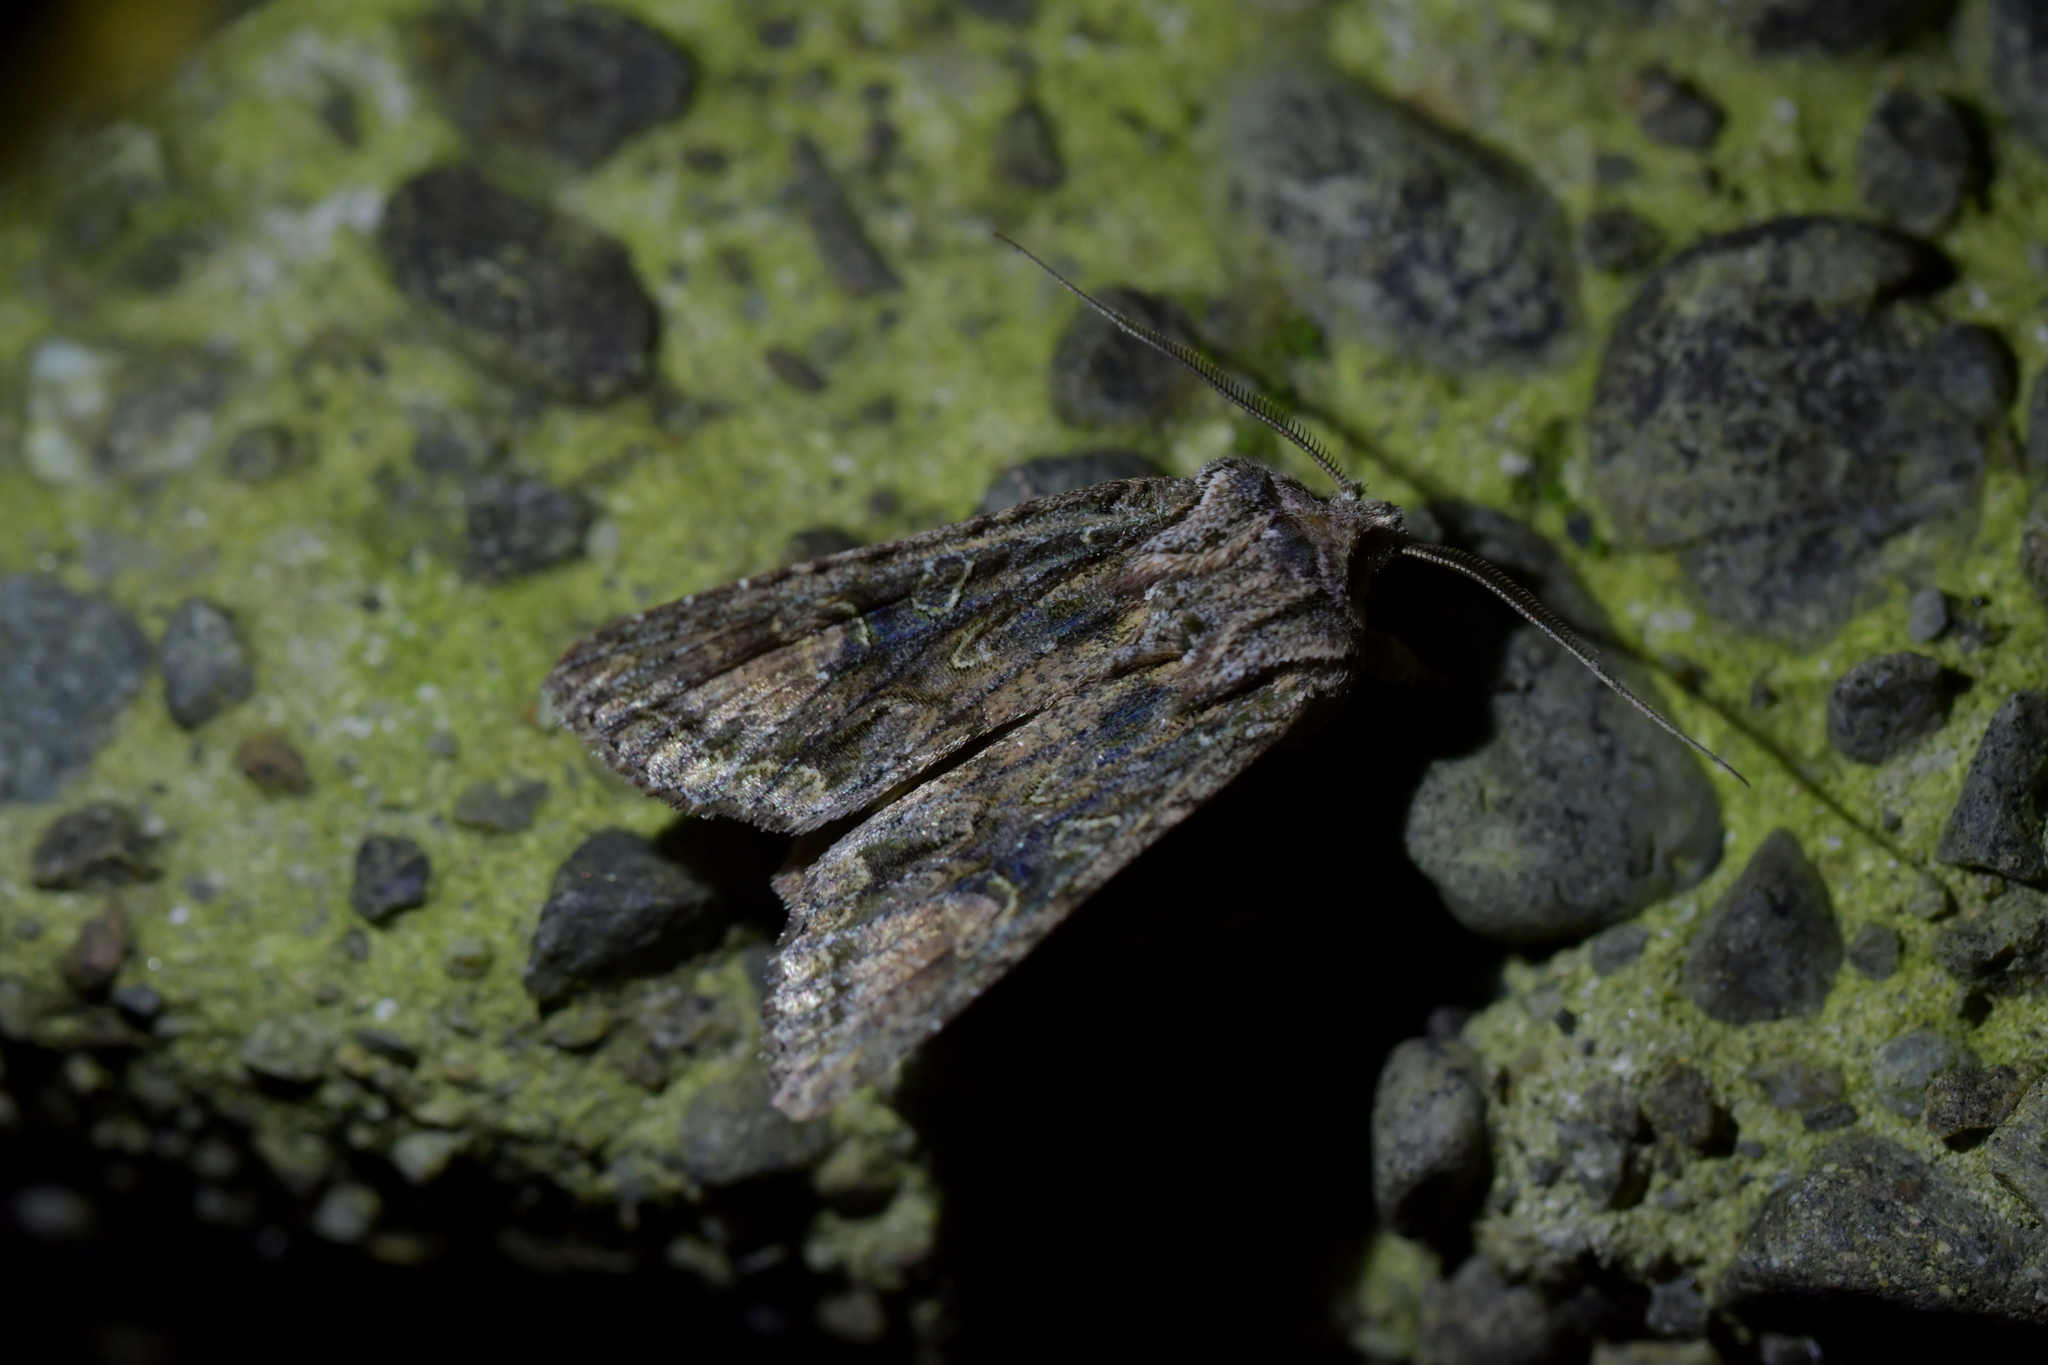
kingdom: Animalia
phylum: Arthropoda
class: Insecta
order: Lepidoptera
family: Noctuidae
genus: Ichneutica
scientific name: Ichneutica mutans
